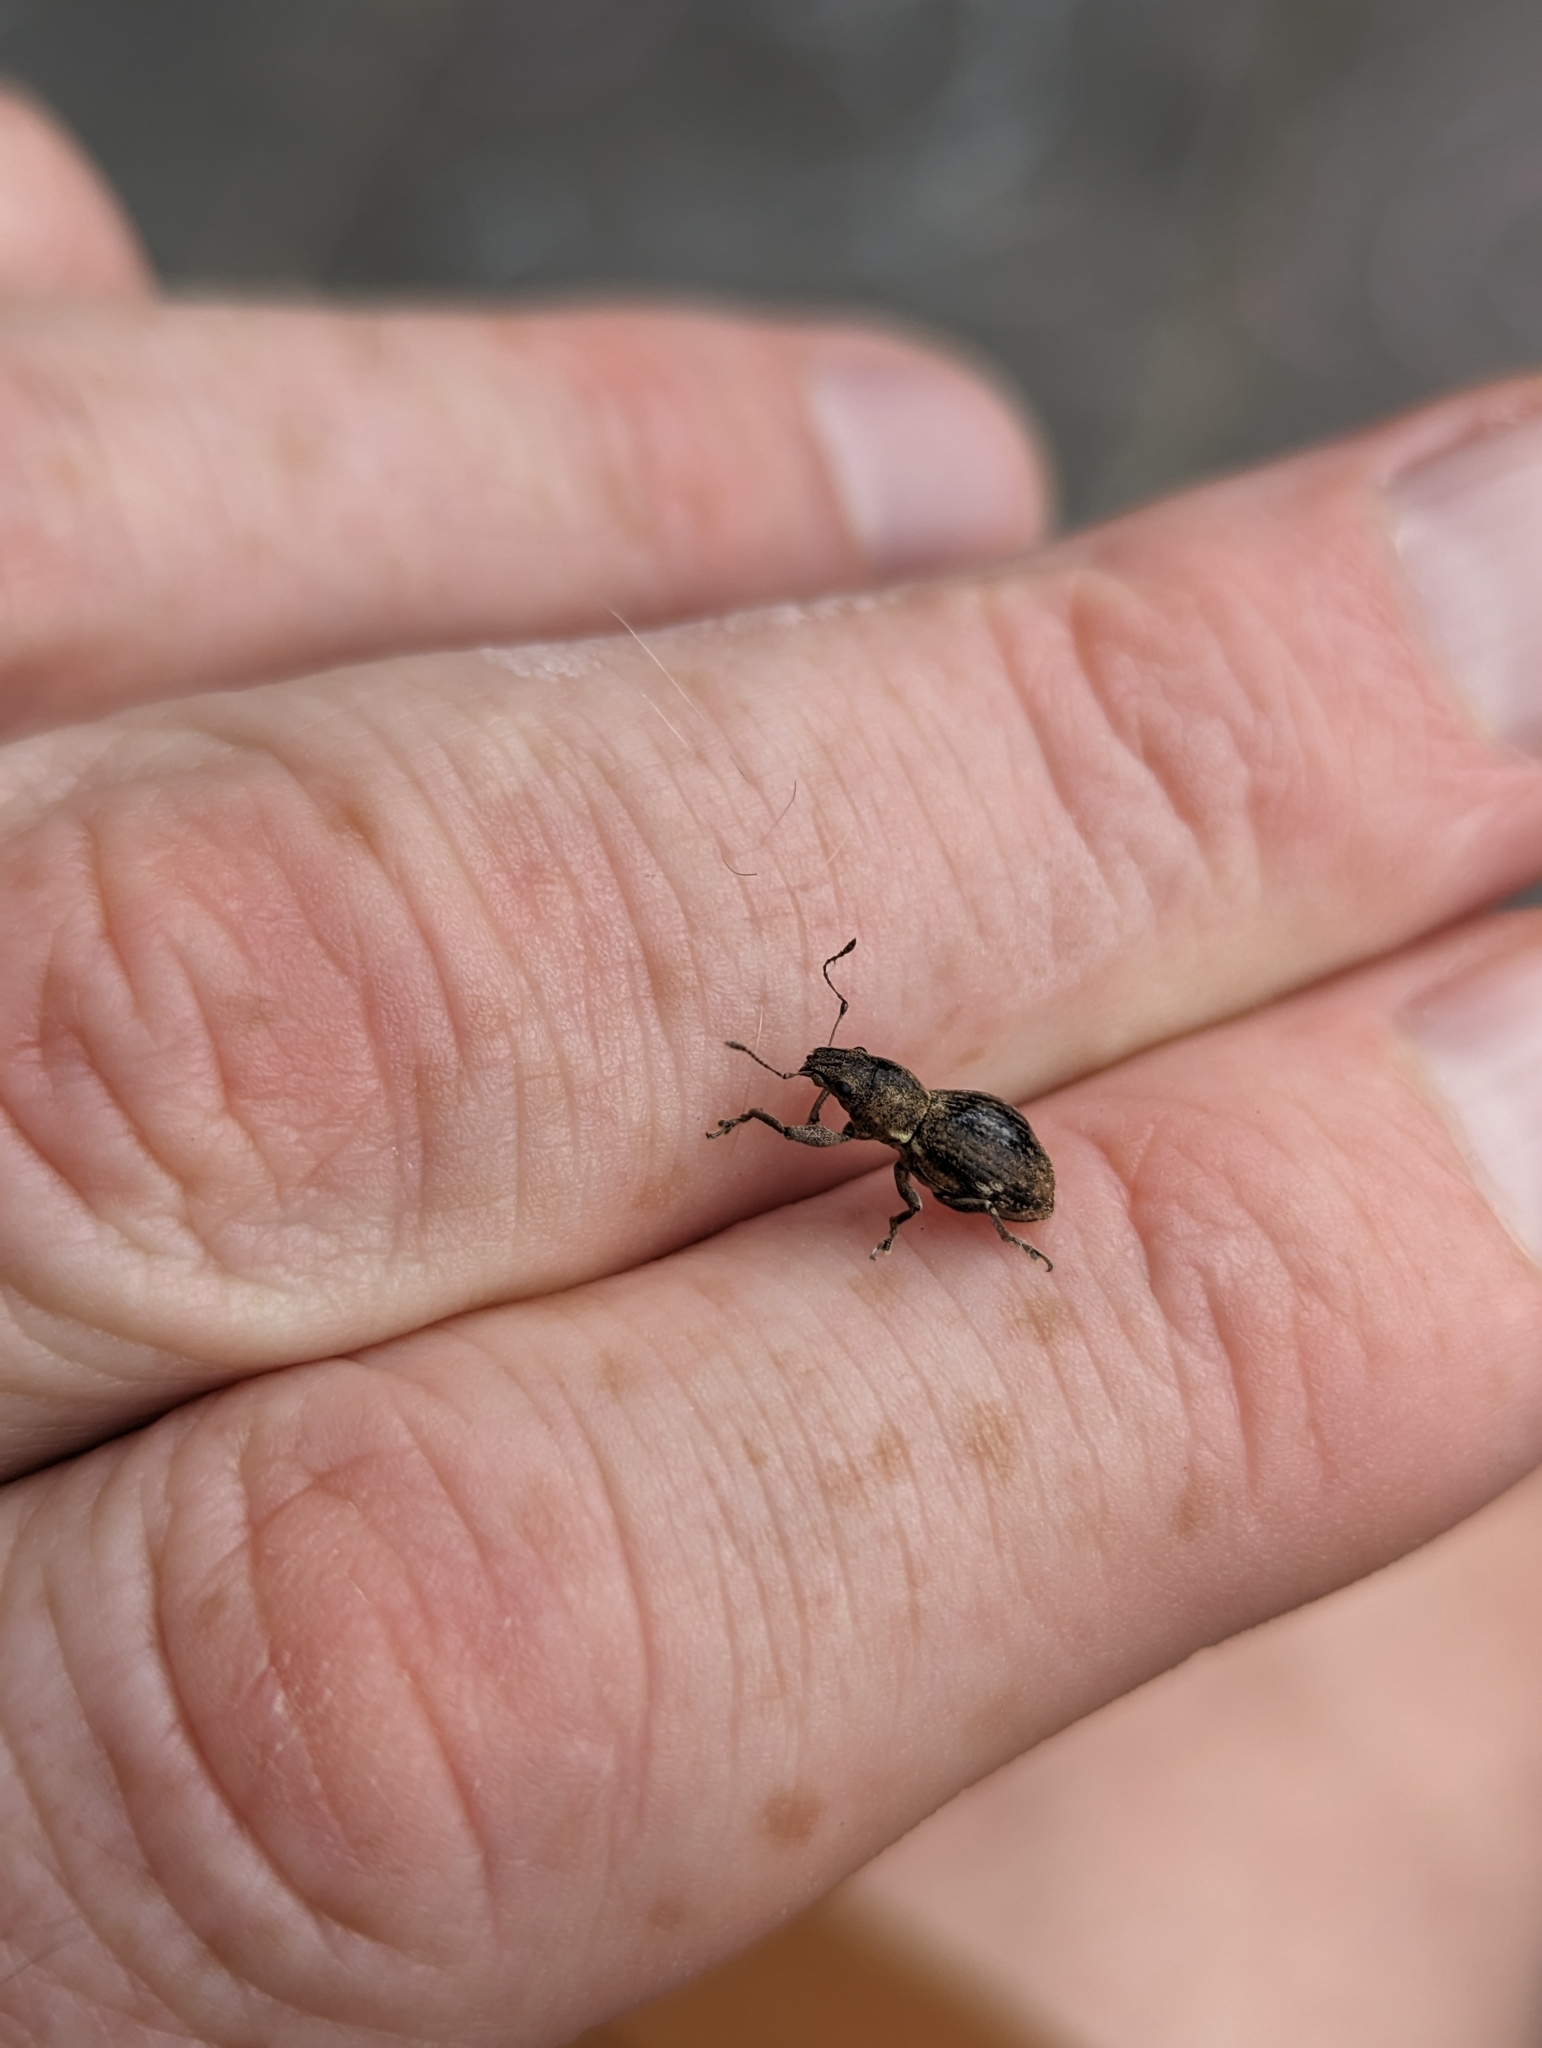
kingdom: Animalia
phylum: Arthropoda
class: Insecta
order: Coleoptera
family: Curculionidae
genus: Naupactus
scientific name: Naupactus cervinus
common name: Fuller rose beetle
